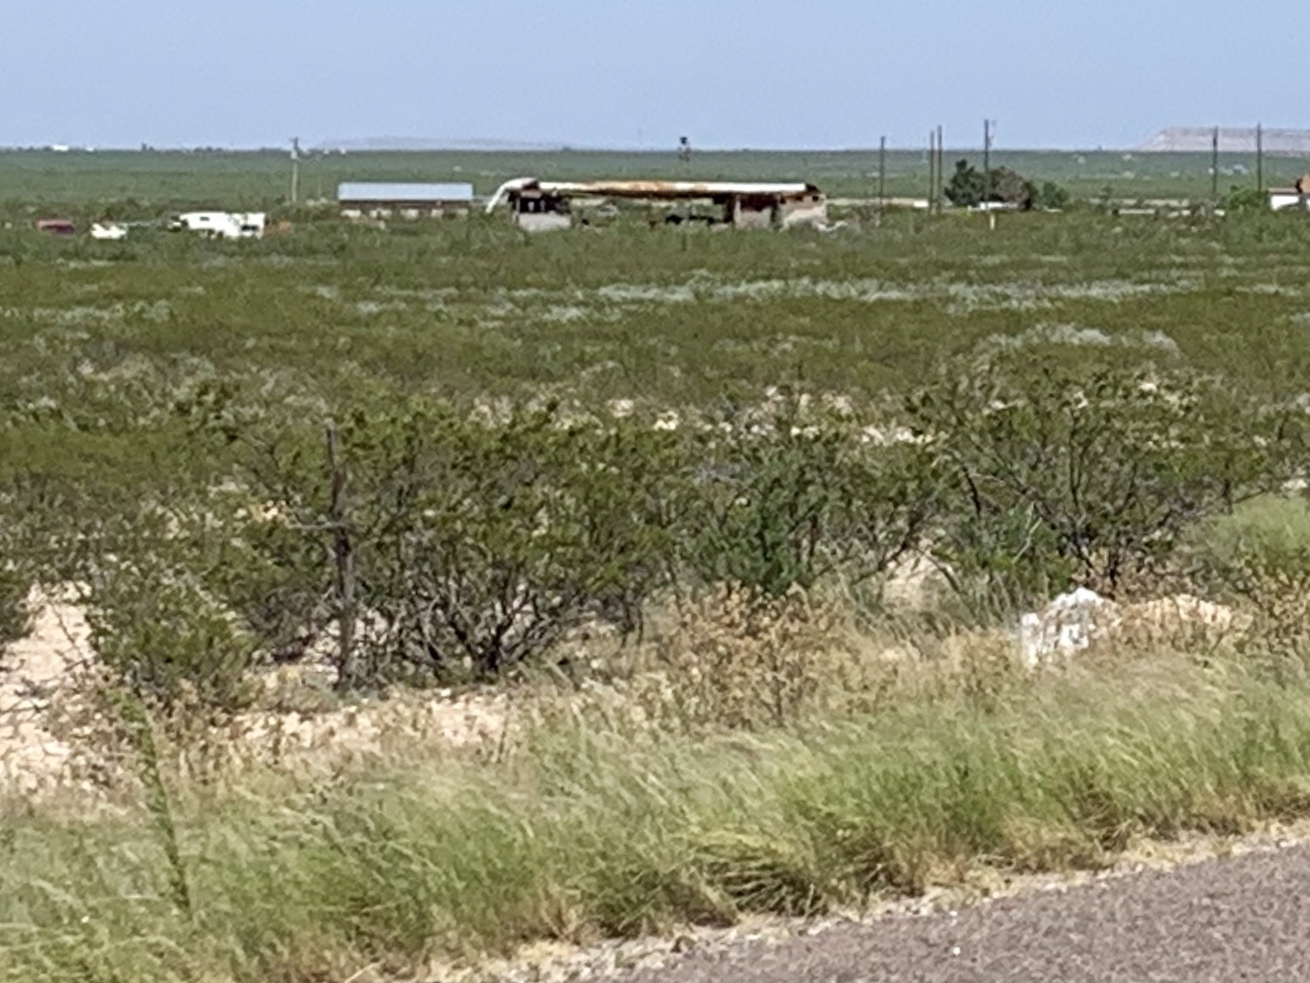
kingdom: Plantae
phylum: Tracheophyta
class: Magnoliopsida
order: Zygophyllales
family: Zygophyllaceae
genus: Larrea
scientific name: Larrea tridentata
